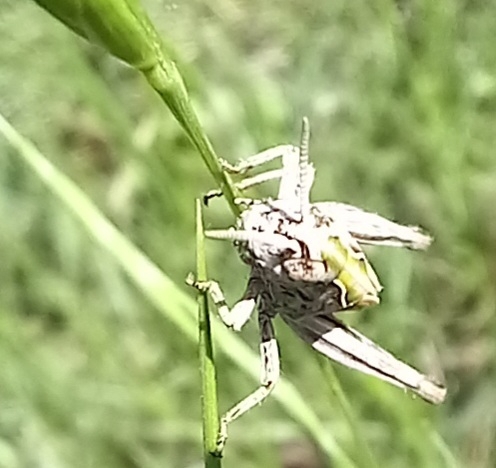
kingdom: Animalia
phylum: Arthropoda
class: Insecta
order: Orthoptera
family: Acrididae
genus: Omocestus
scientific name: Omocestus rufipes
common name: Woodland grasshopper
